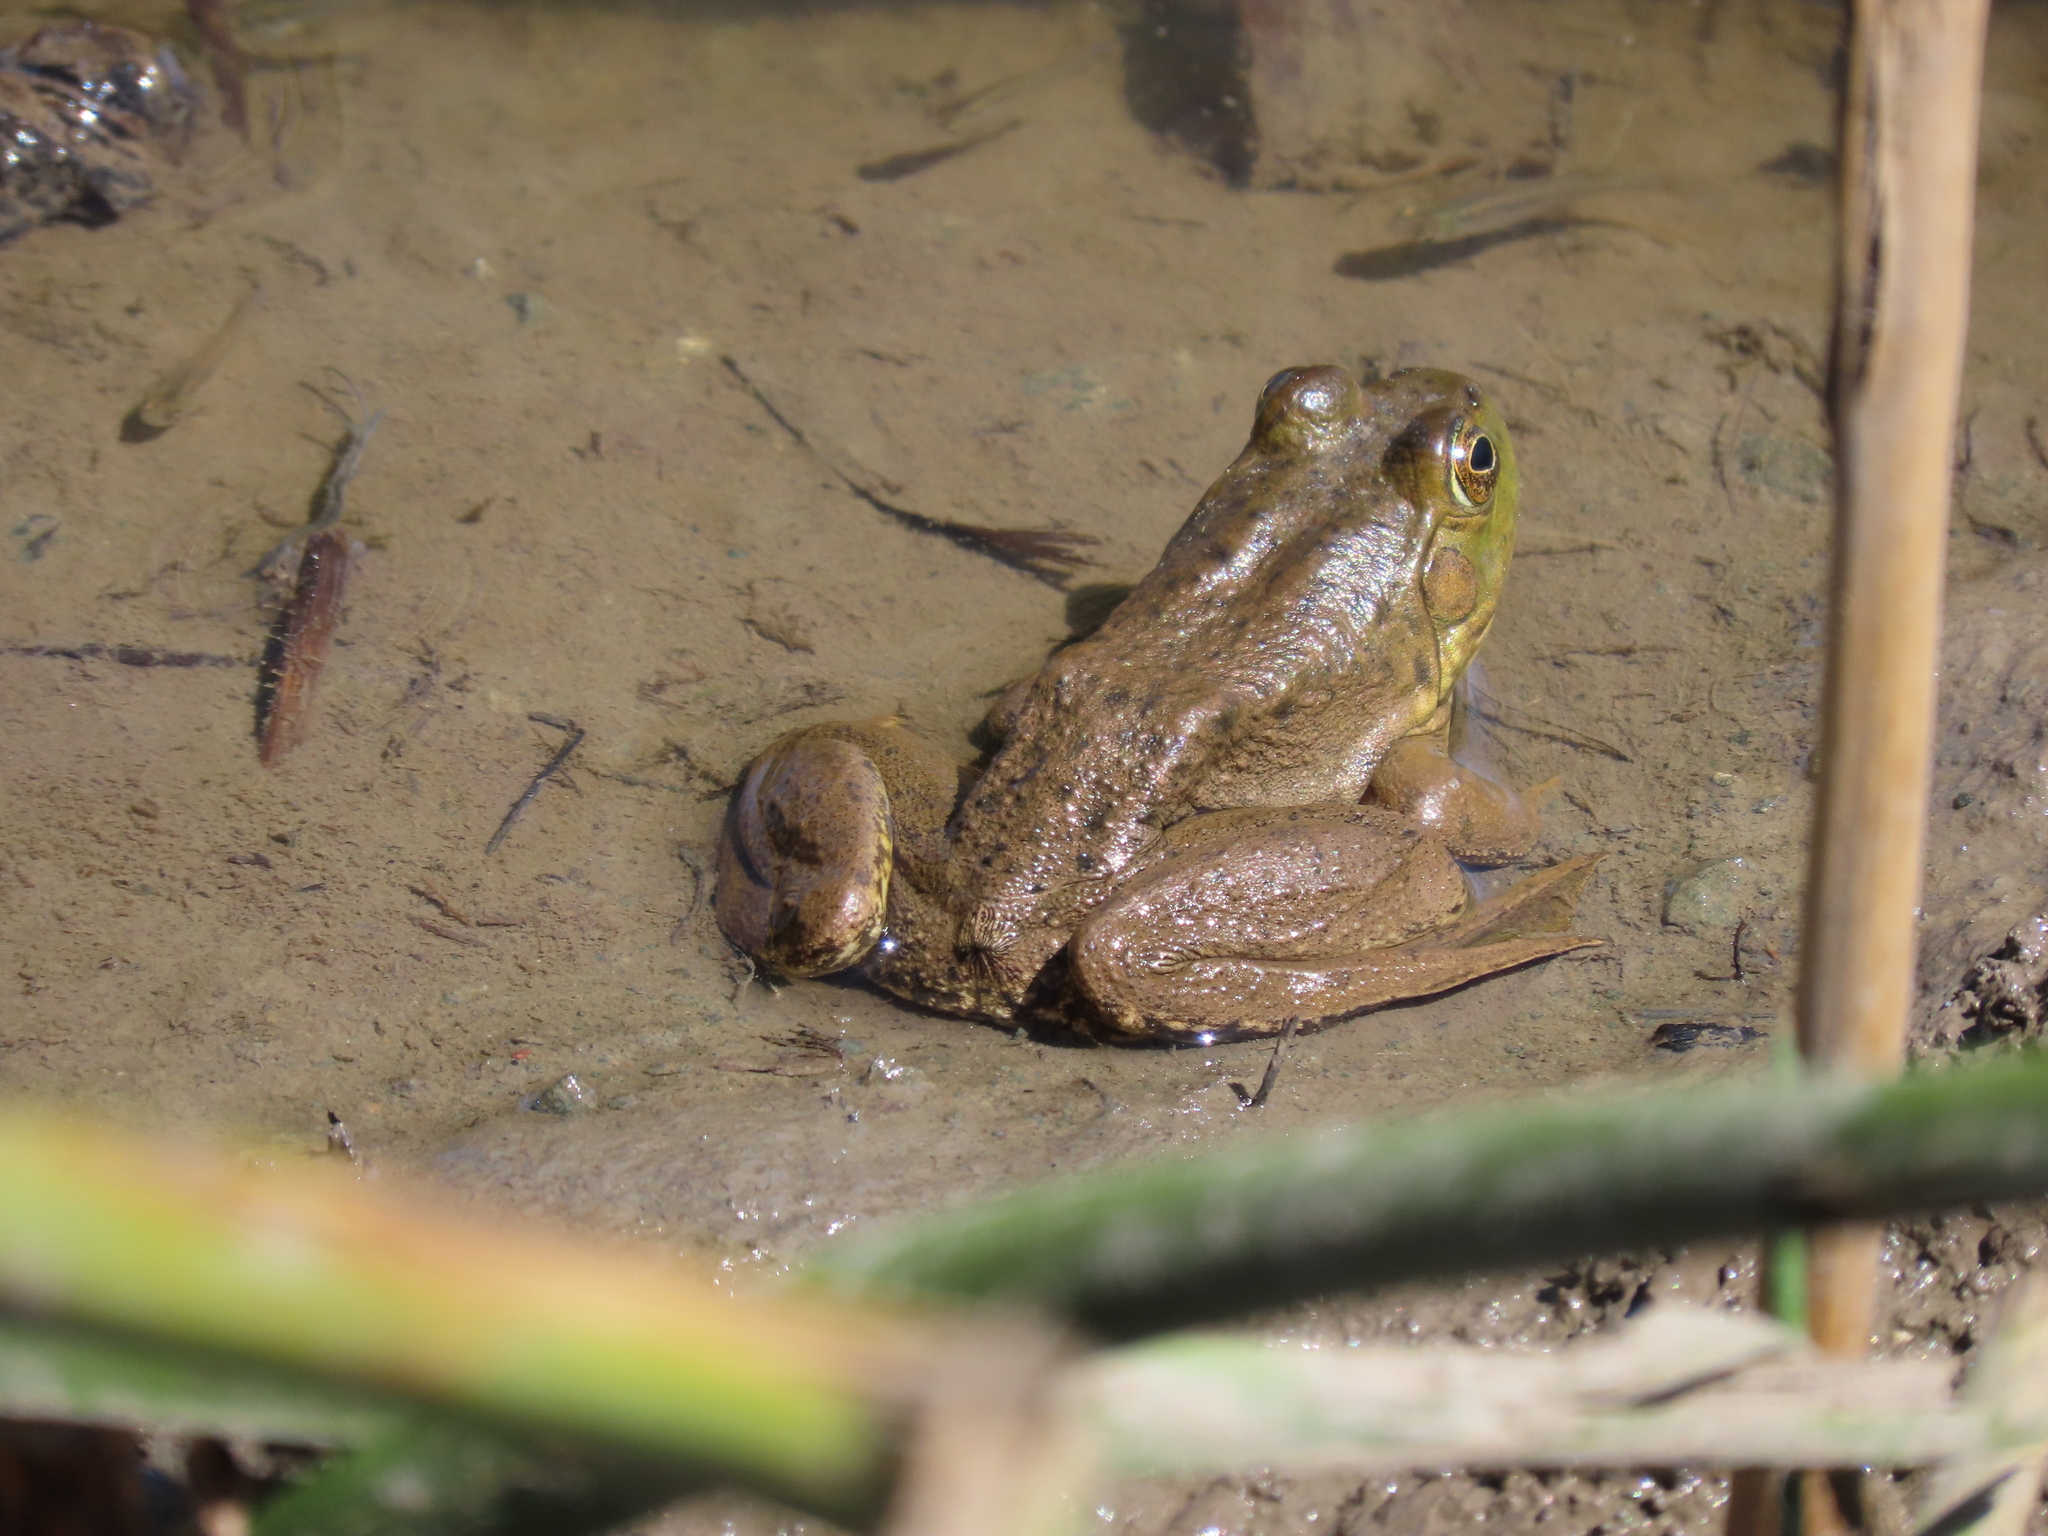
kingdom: Animalia
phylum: Chordata
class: Amphibia
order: Anura
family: Ranidae
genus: Lithobates
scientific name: Lithobates catesbeianus
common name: American bullfrog
